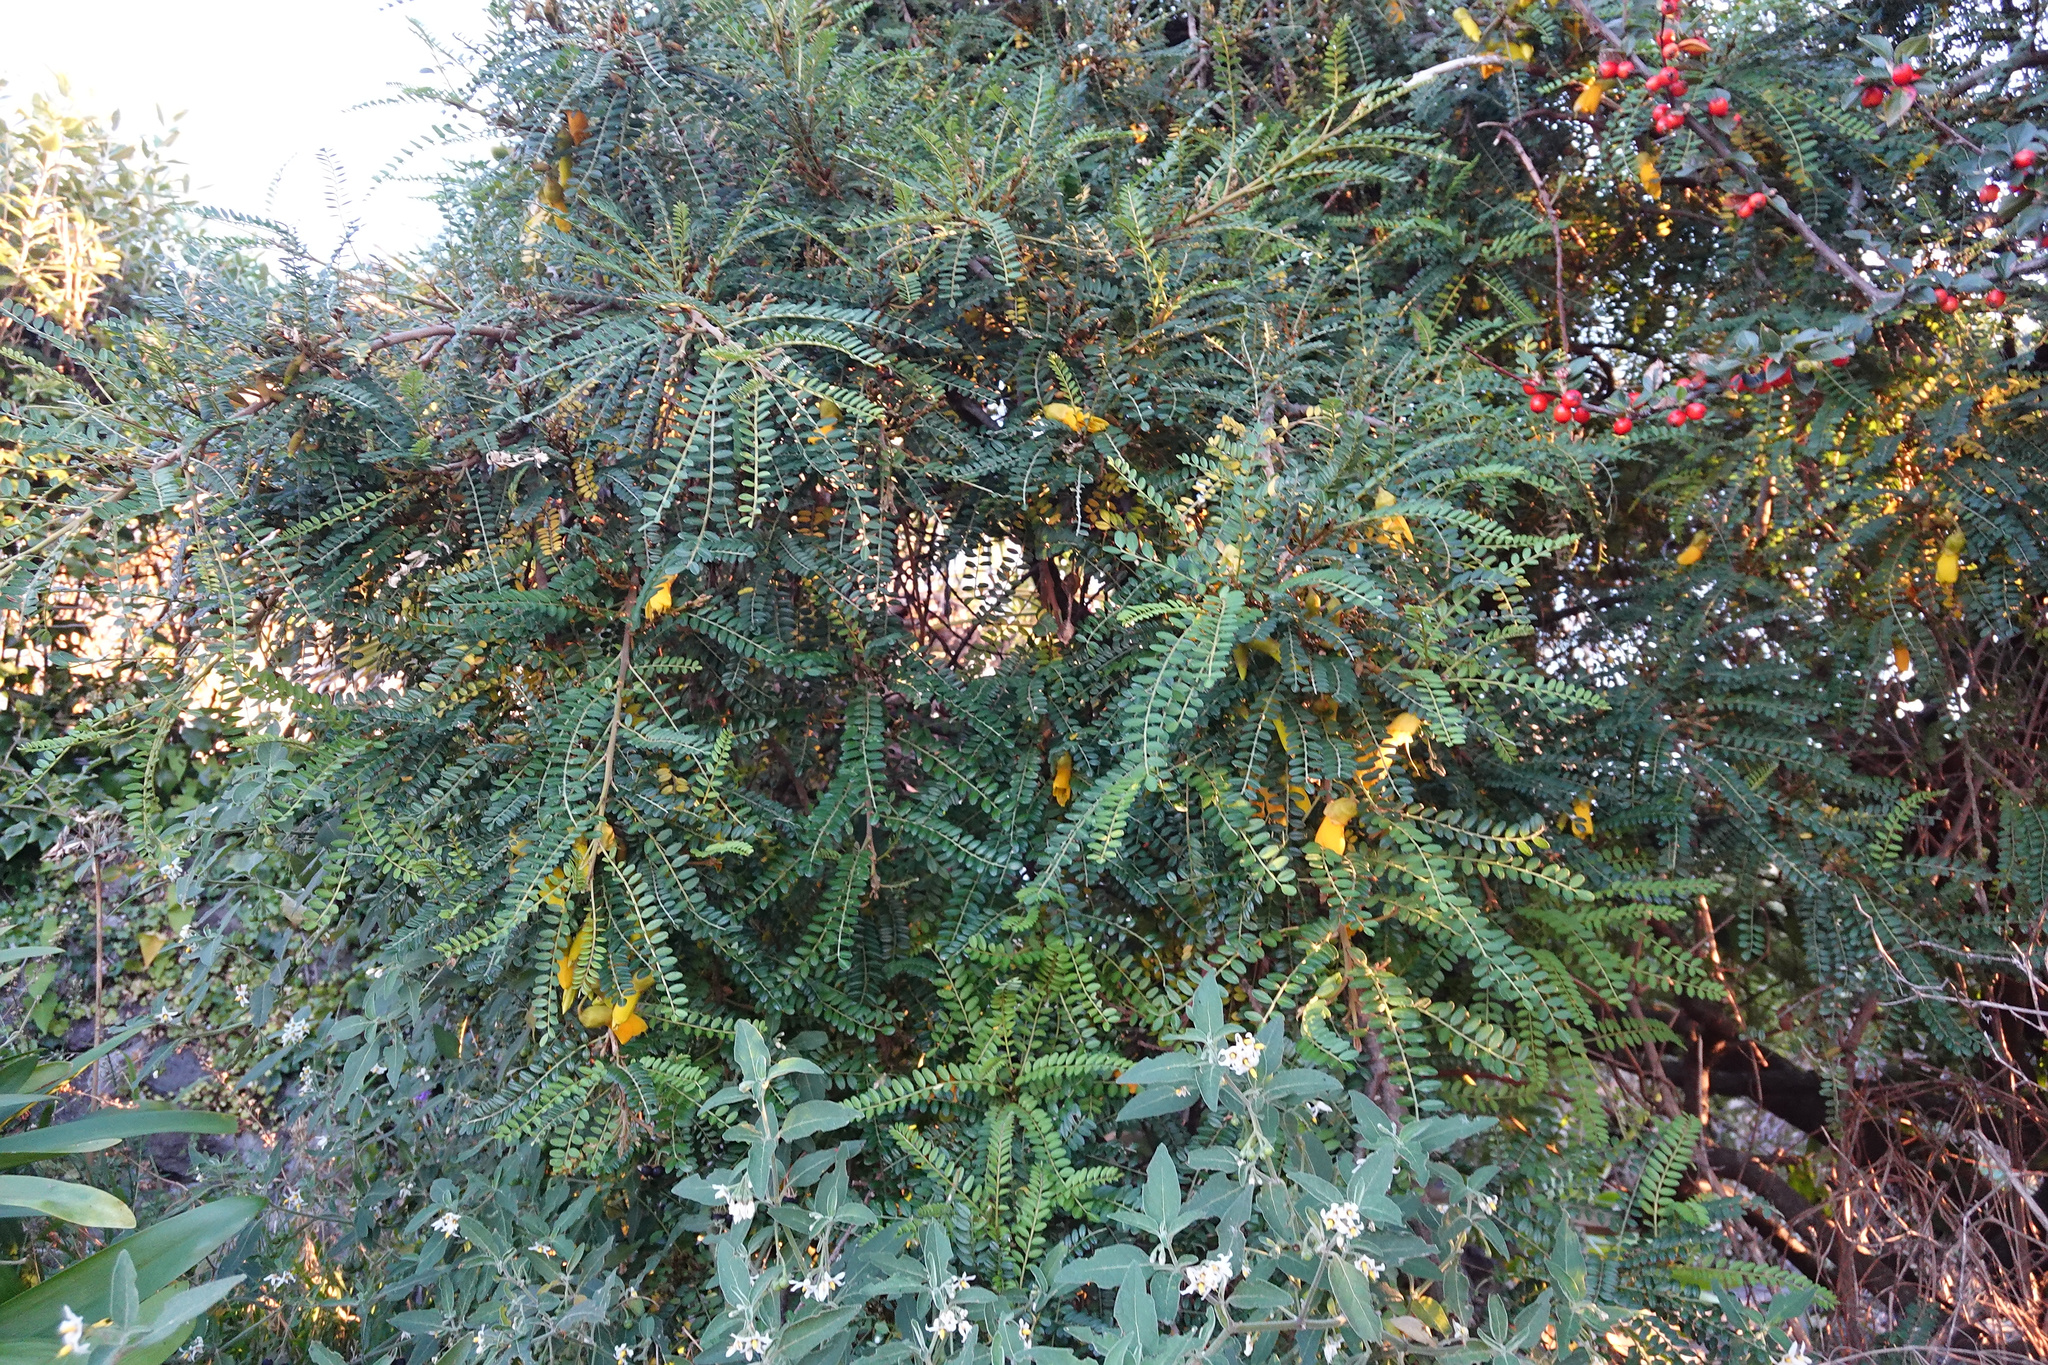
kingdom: Plantae
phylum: Tracheophyta
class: Magnoliopsida
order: Santalales
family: Loranthaceae
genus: Ileostylus
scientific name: Ileostylus micranthus
